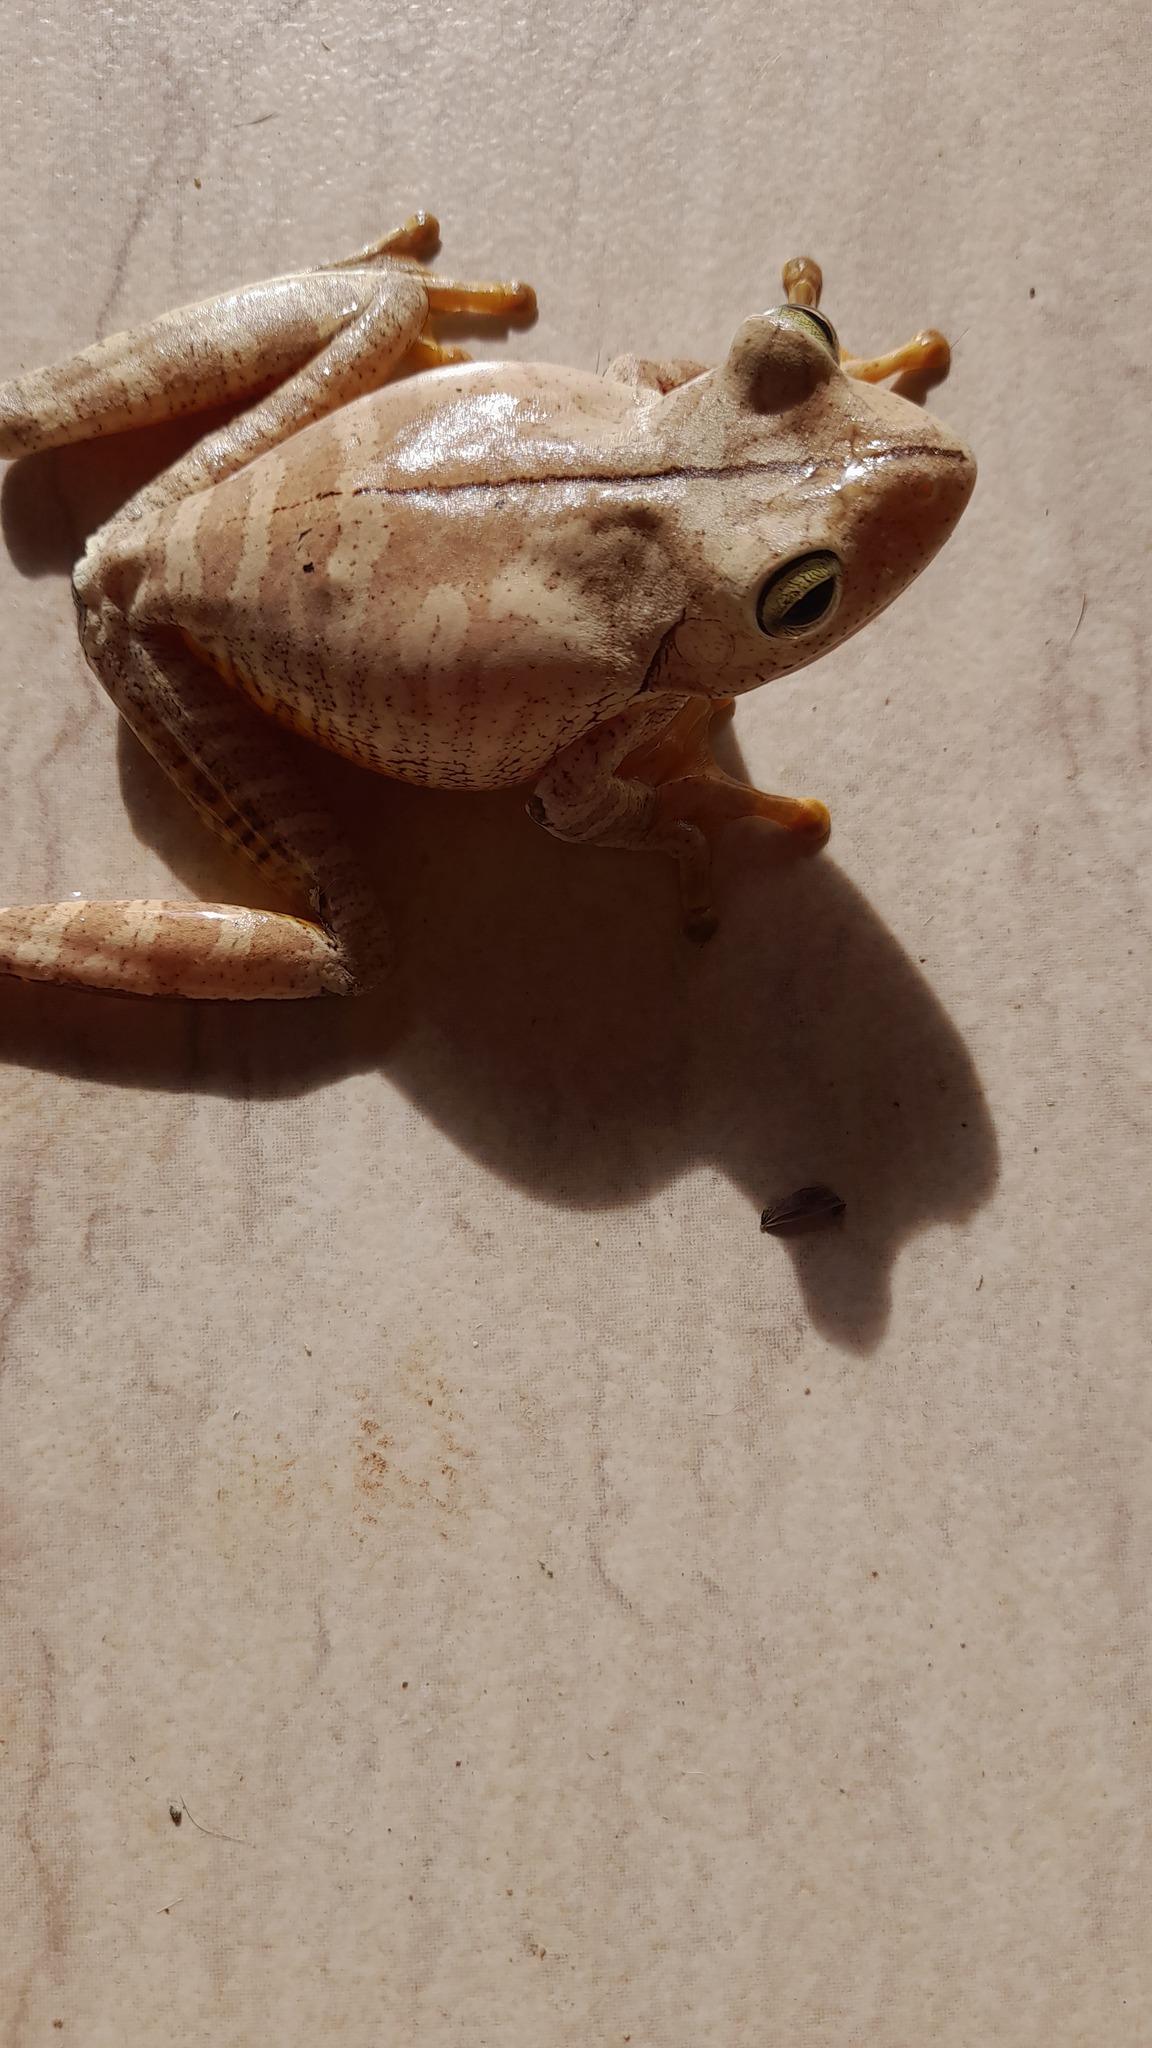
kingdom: Animalia
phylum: Chordata
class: Amphibia
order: Anura
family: Hylidae
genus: Boana
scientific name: Boana faber
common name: Blacksmith tree frog
